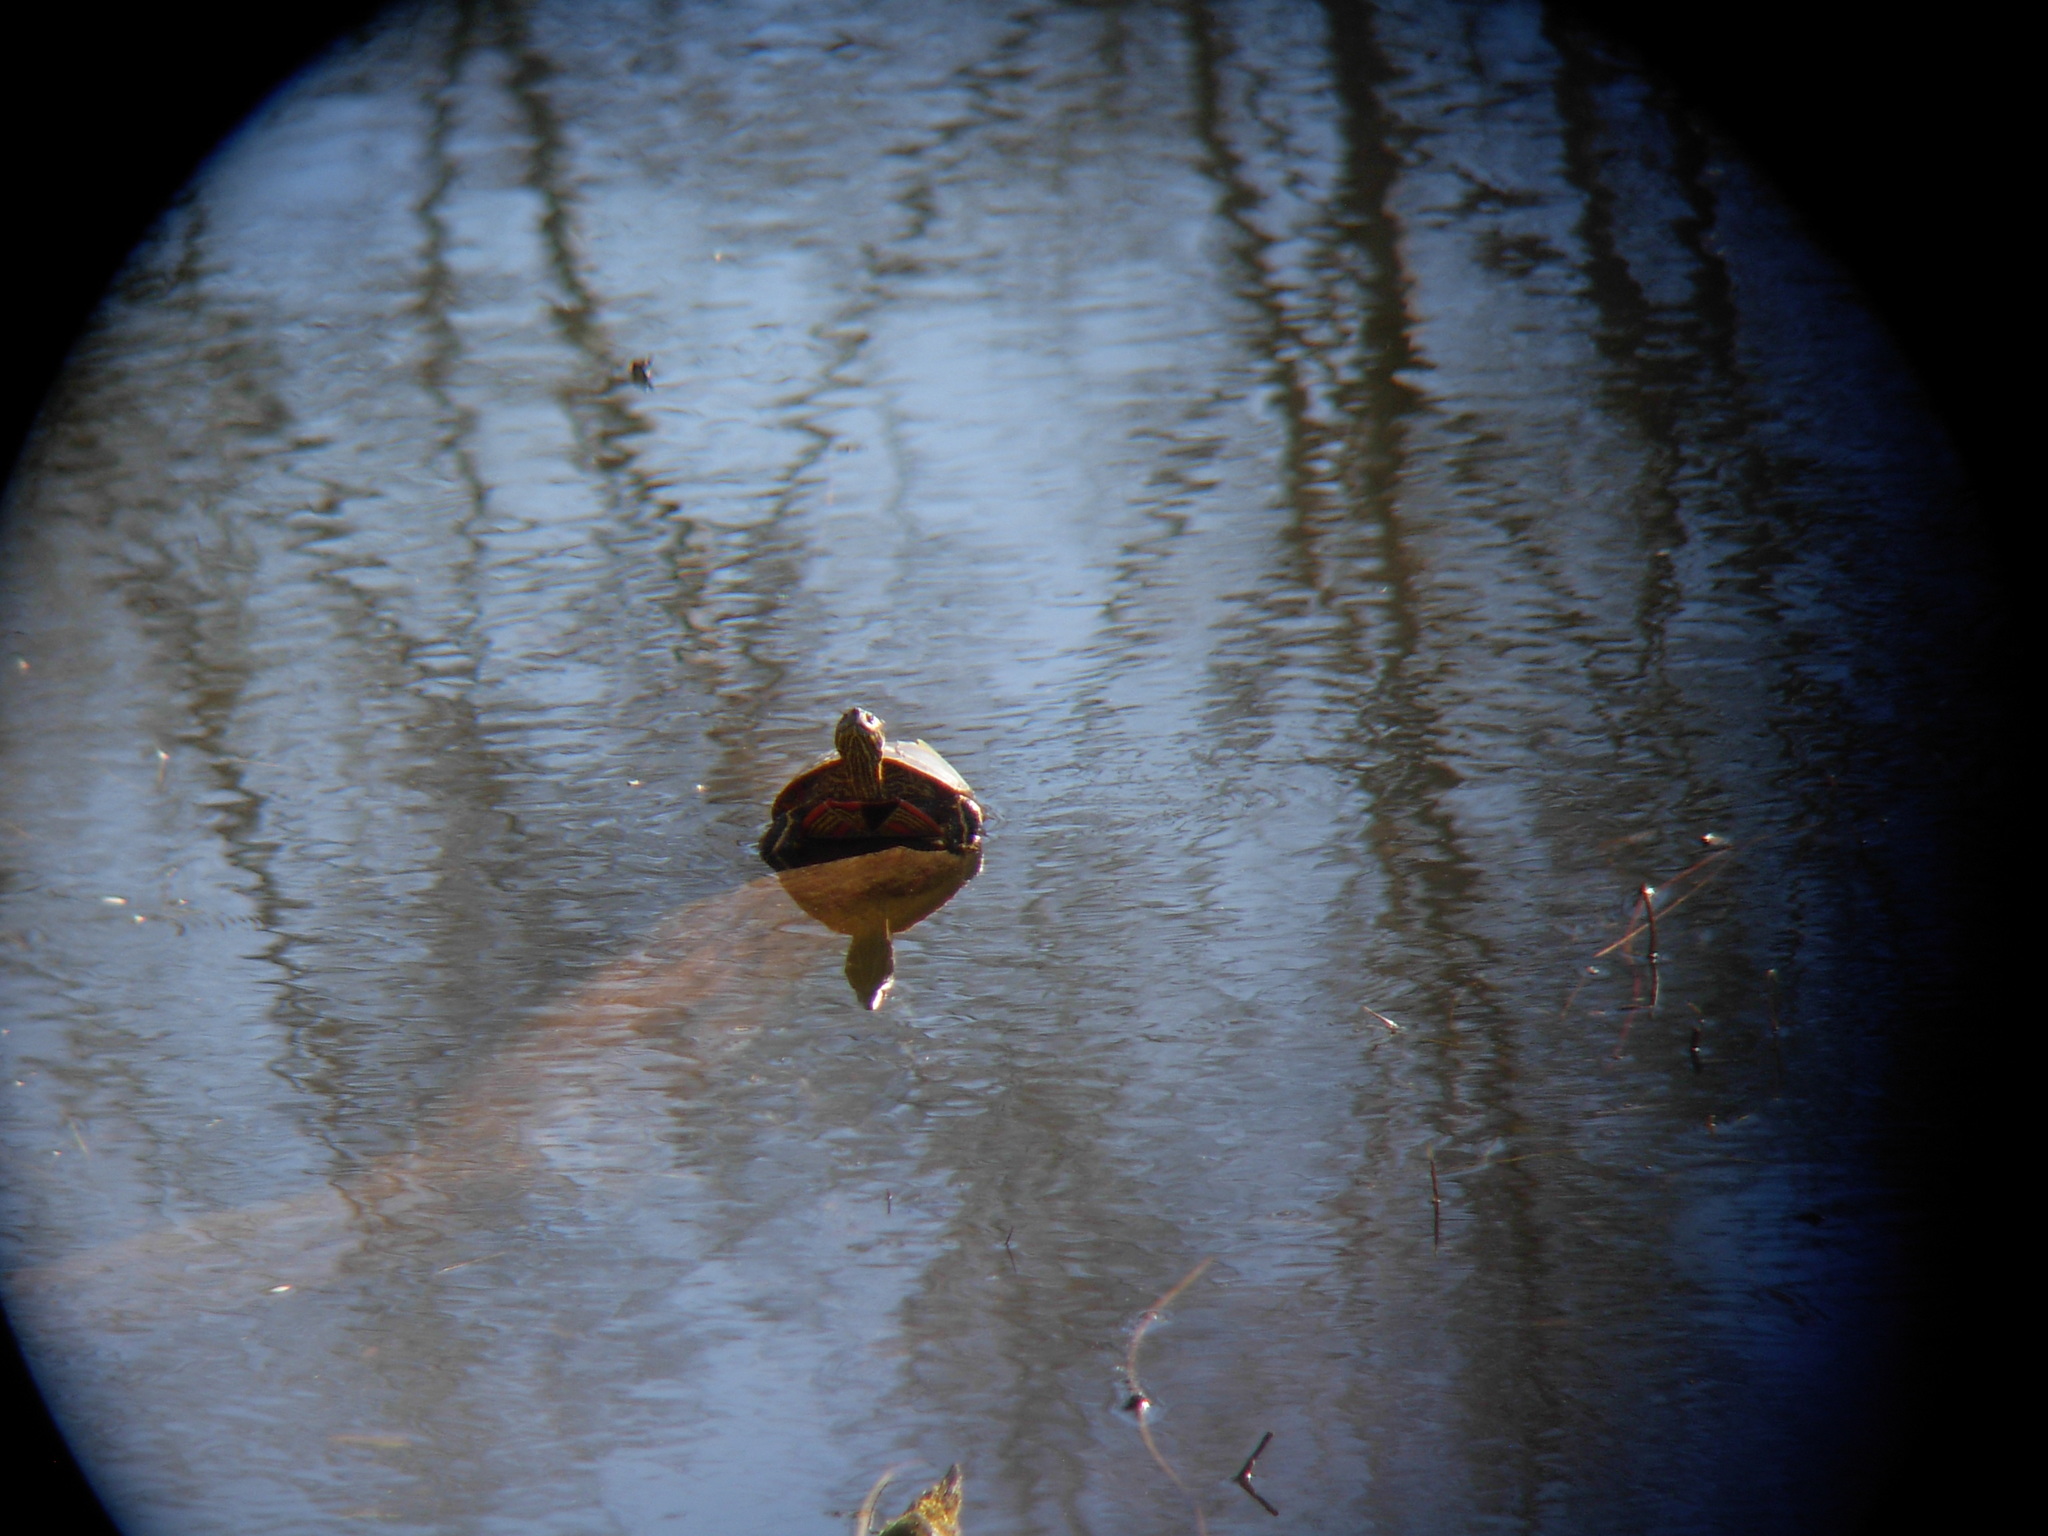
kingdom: Animalia
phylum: Chordata
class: Testudines
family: Emydidae
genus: Chrysemys
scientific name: Chrysemys picta
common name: Painted turtle
